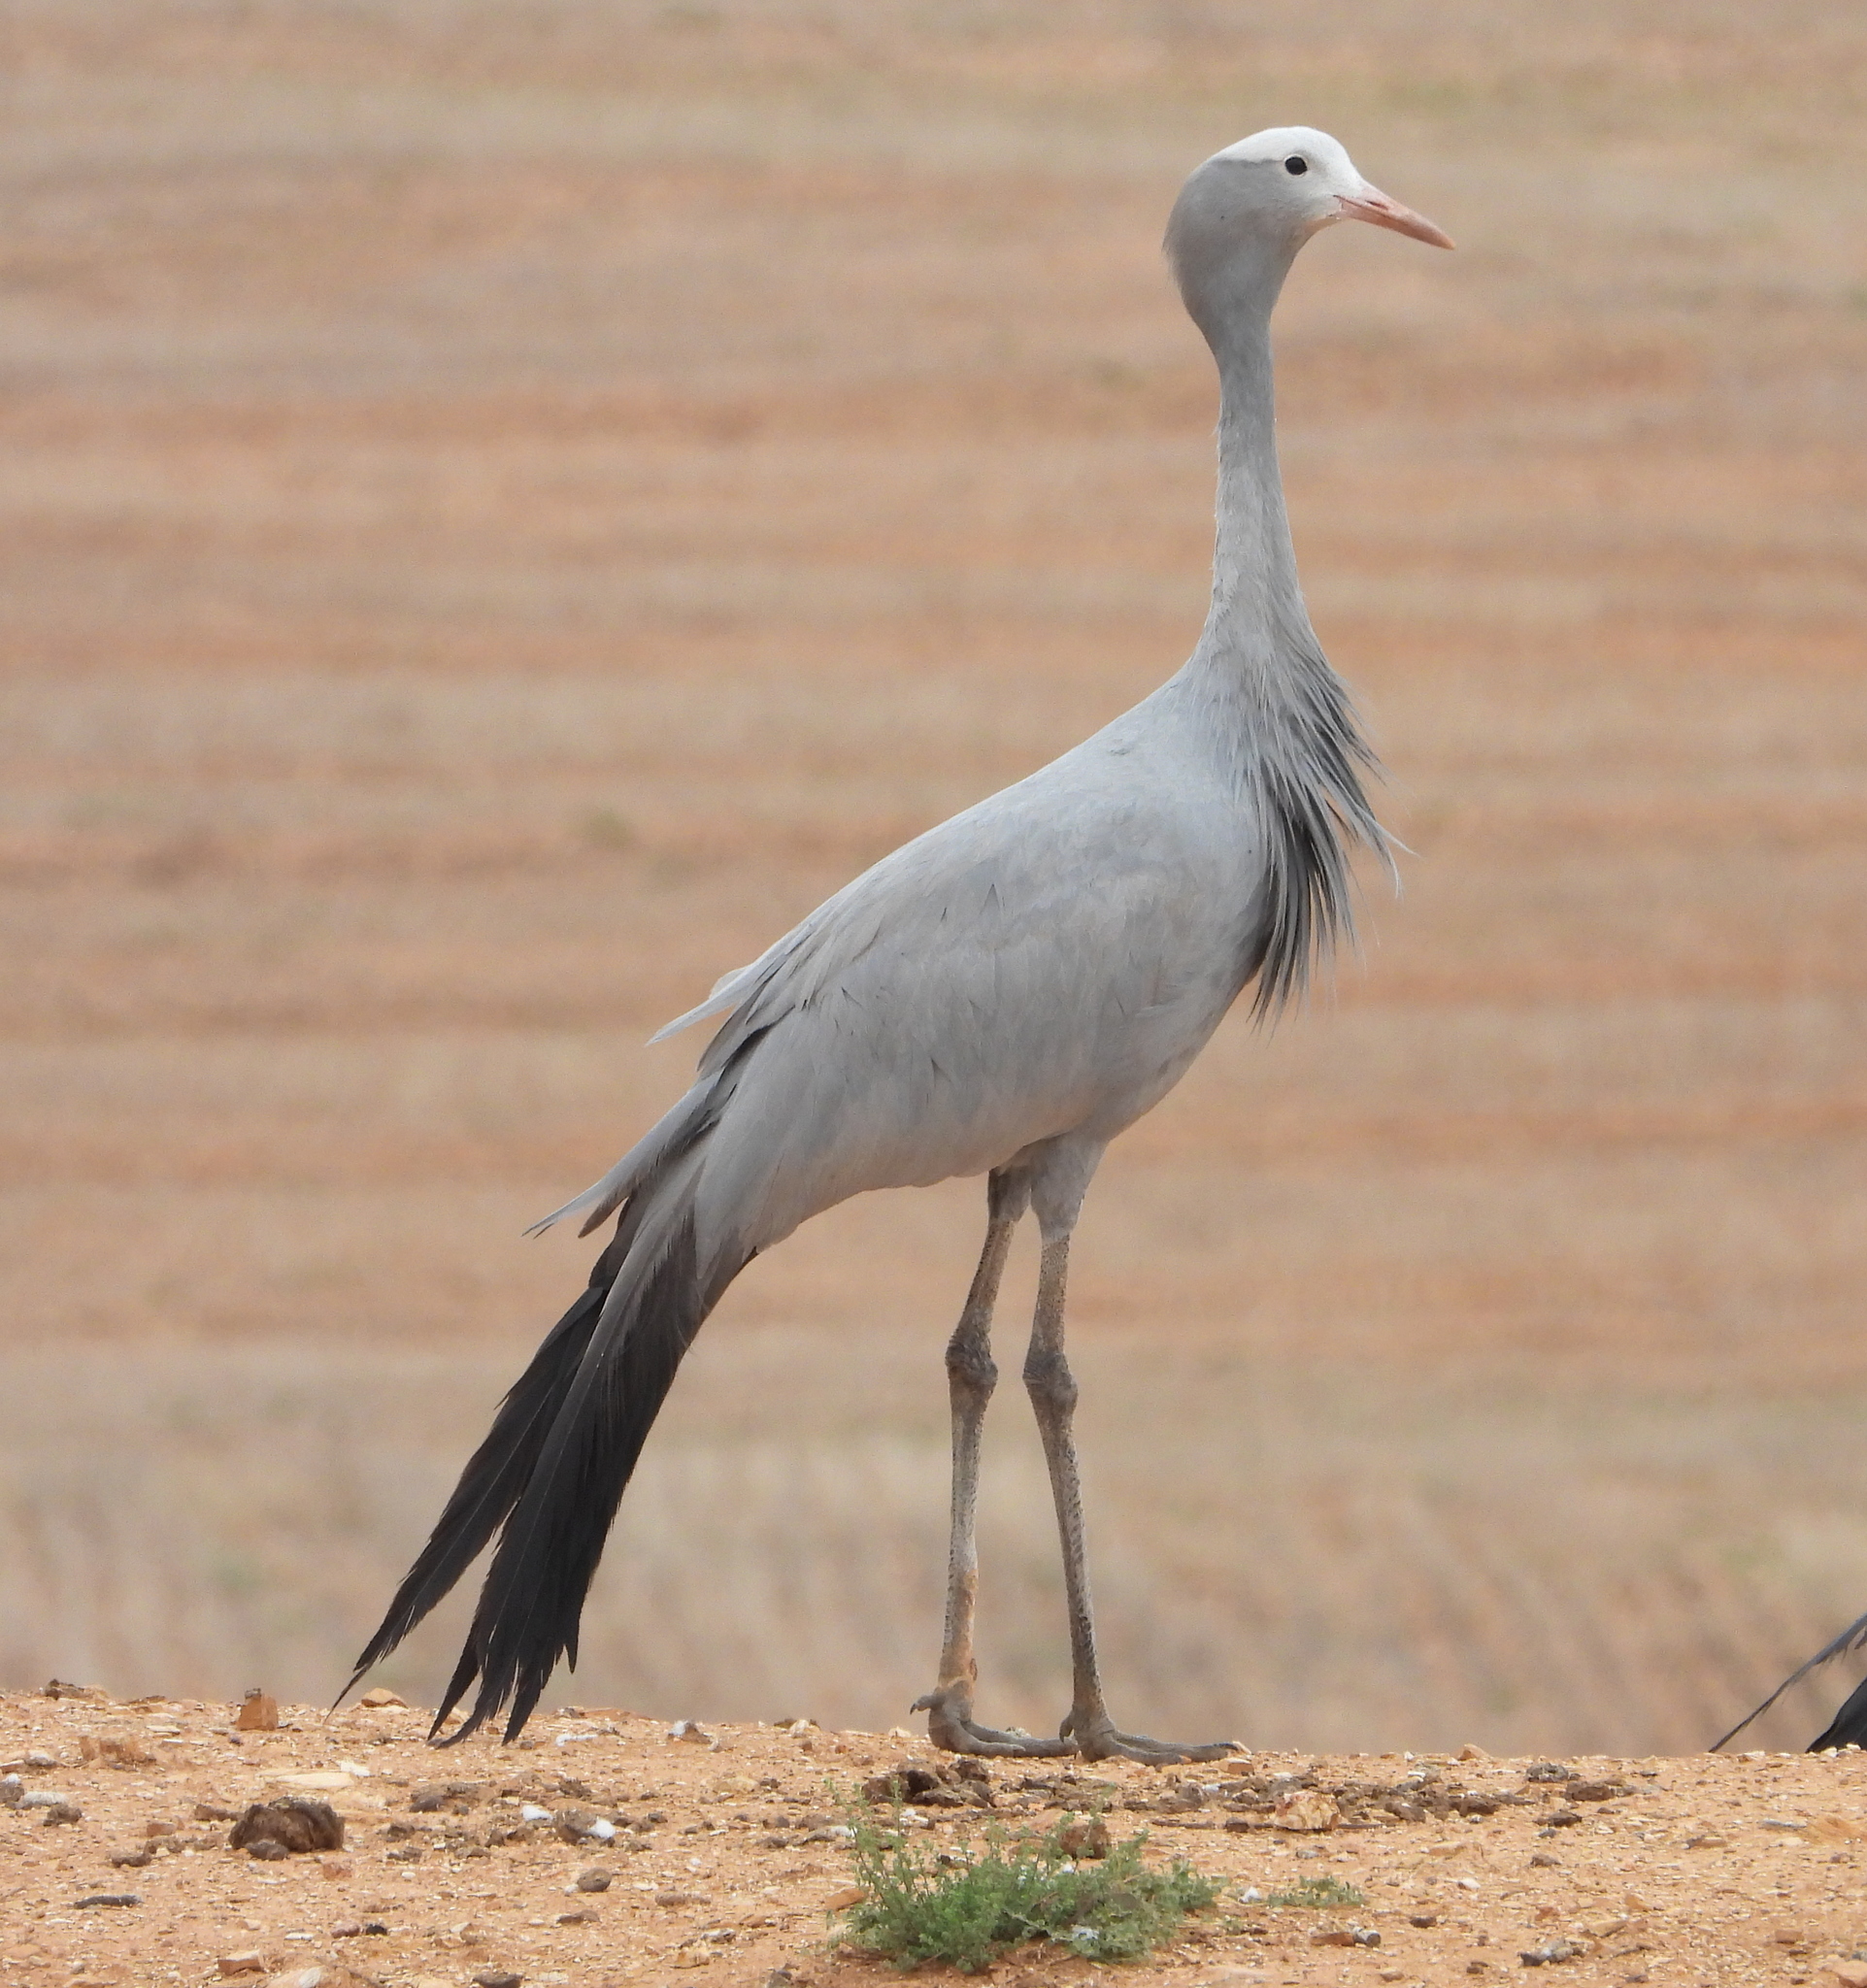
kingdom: Animalia
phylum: Chordata
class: Aves
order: Gruiformes
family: Gruidae
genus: Anthropoides
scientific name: Anthropoides paradiseus
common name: Blue crane
